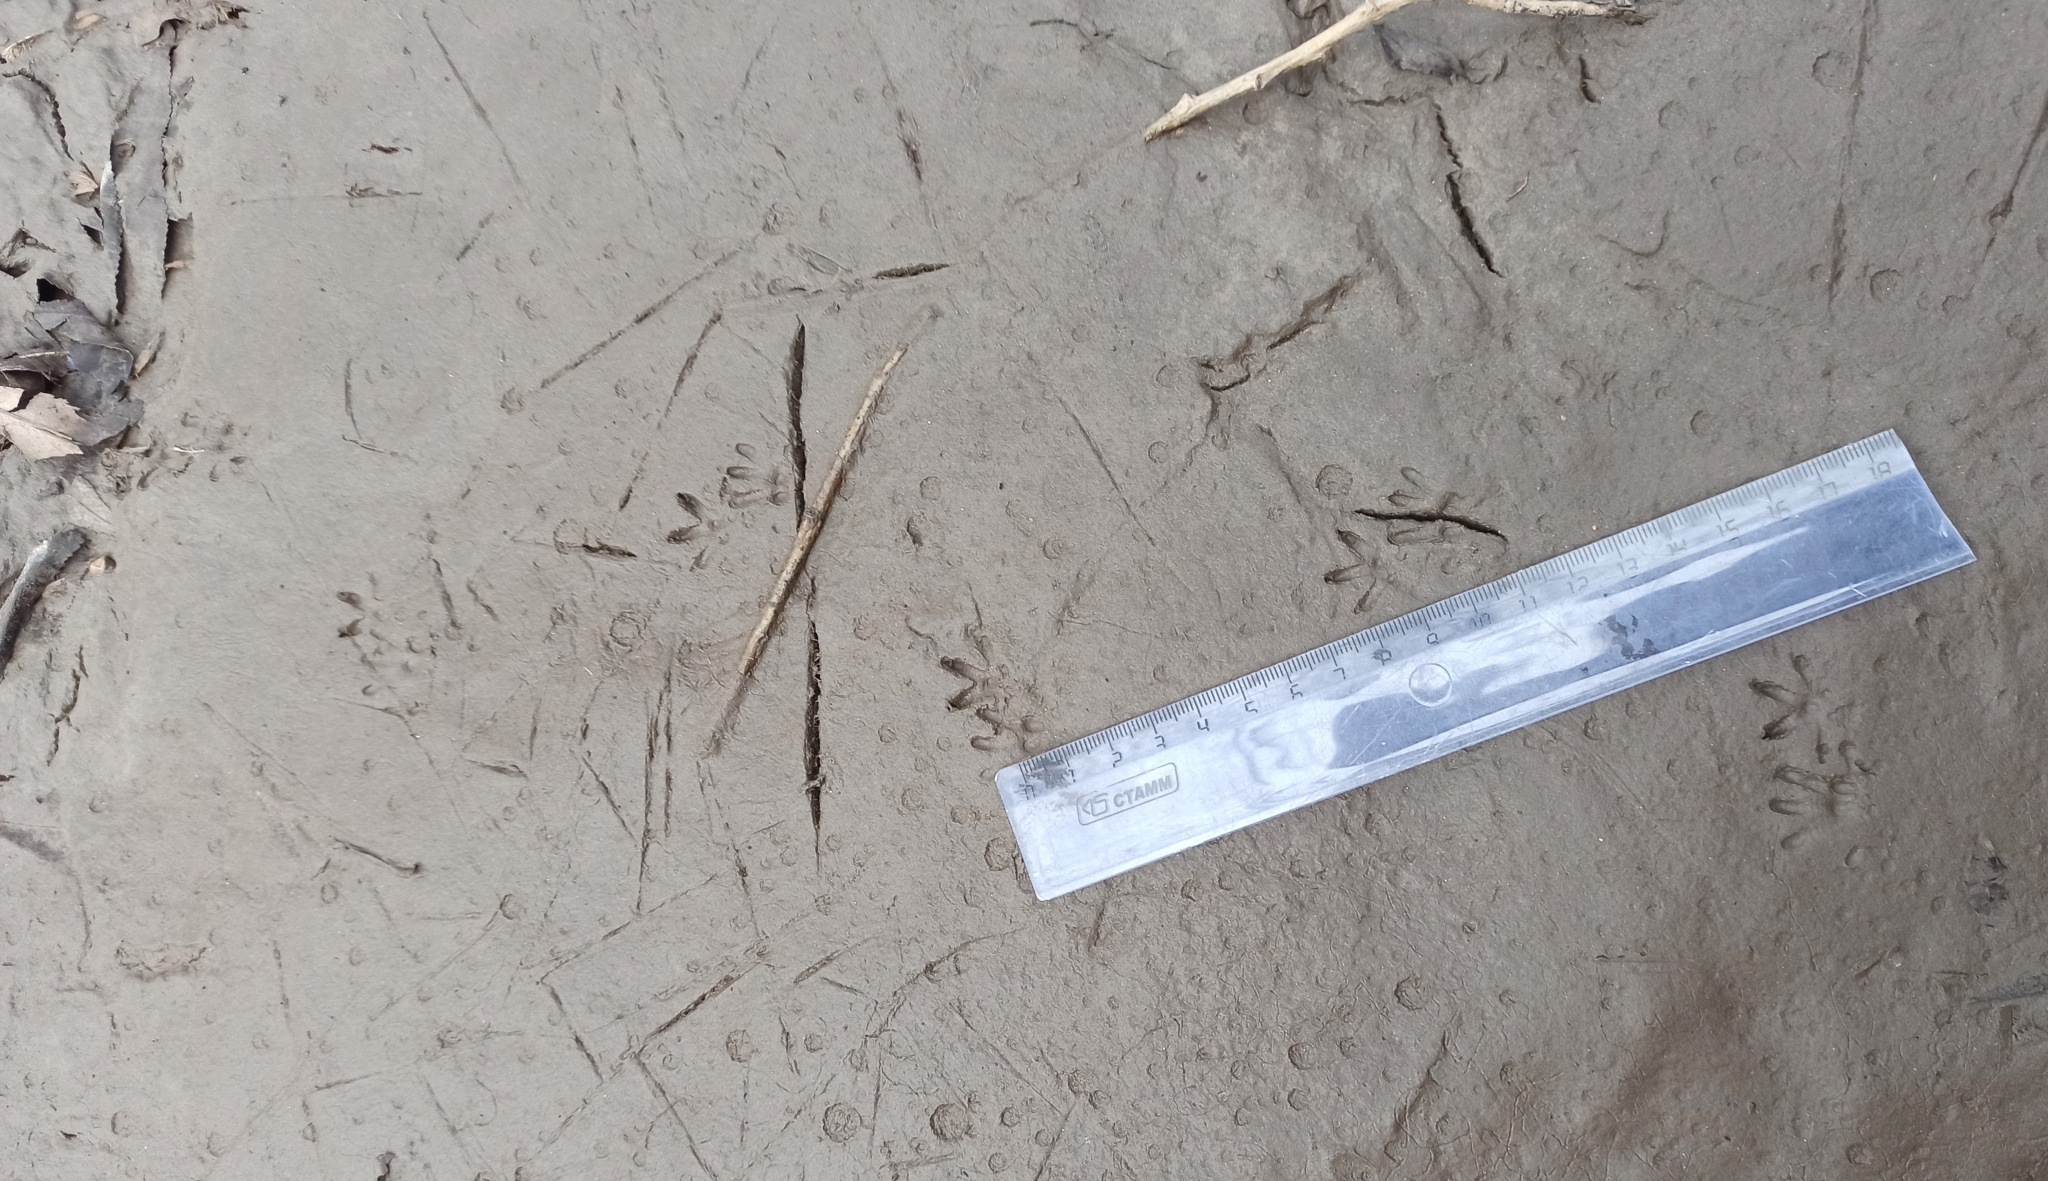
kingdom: Animalia
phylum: Chordata
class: Mammalia
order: Rodentia
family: Muridae
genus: Rattus
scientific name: Rattus norvegicus
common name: Brown rat
